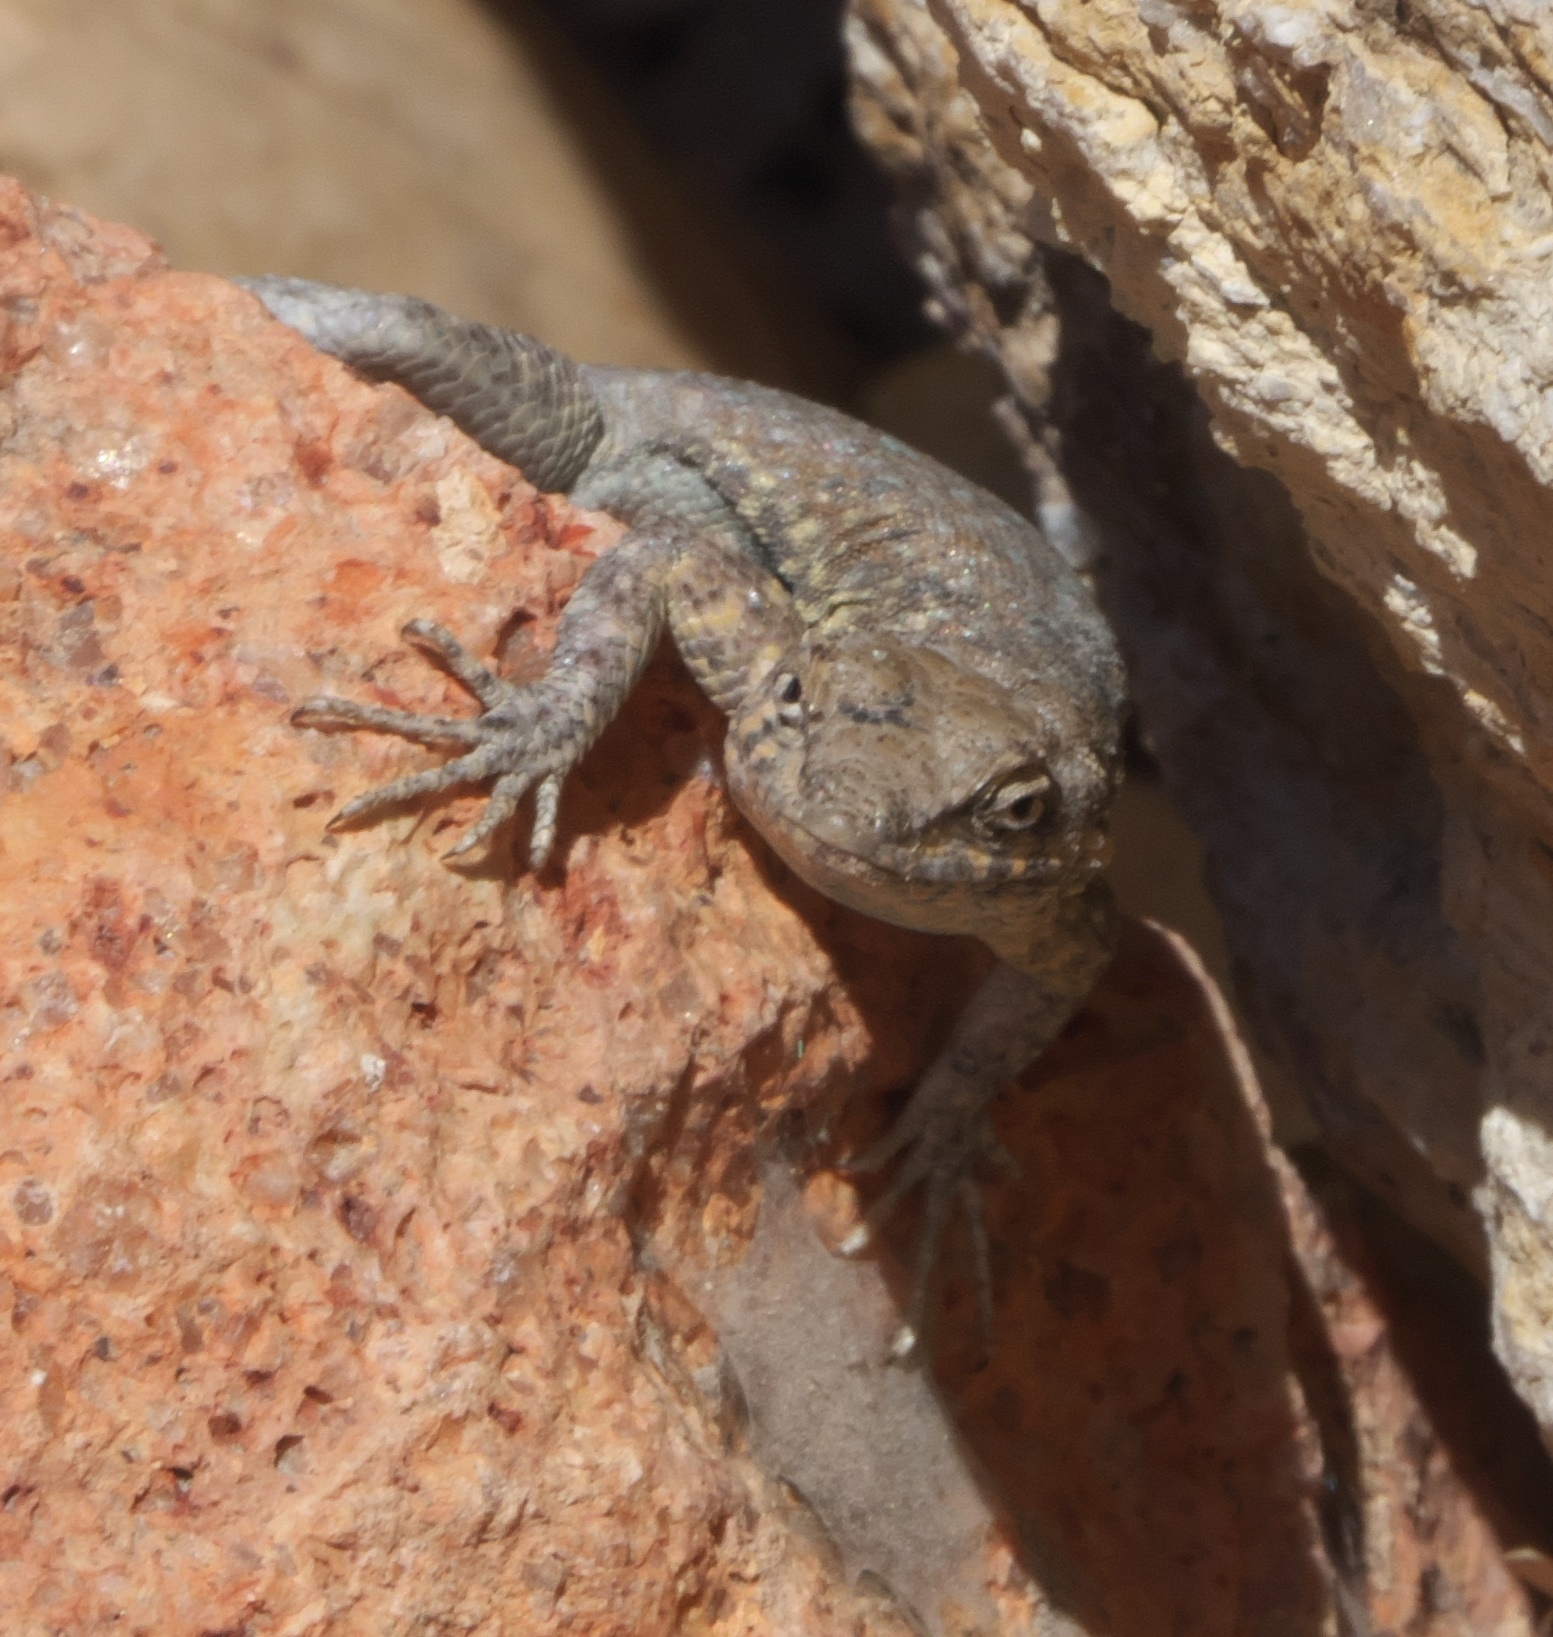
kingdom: Animalia
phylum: Chordata
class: Squamata
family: Phrynosomatidae
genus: Uta
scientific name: Uta stansburiana
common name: Side-blotched lizard
